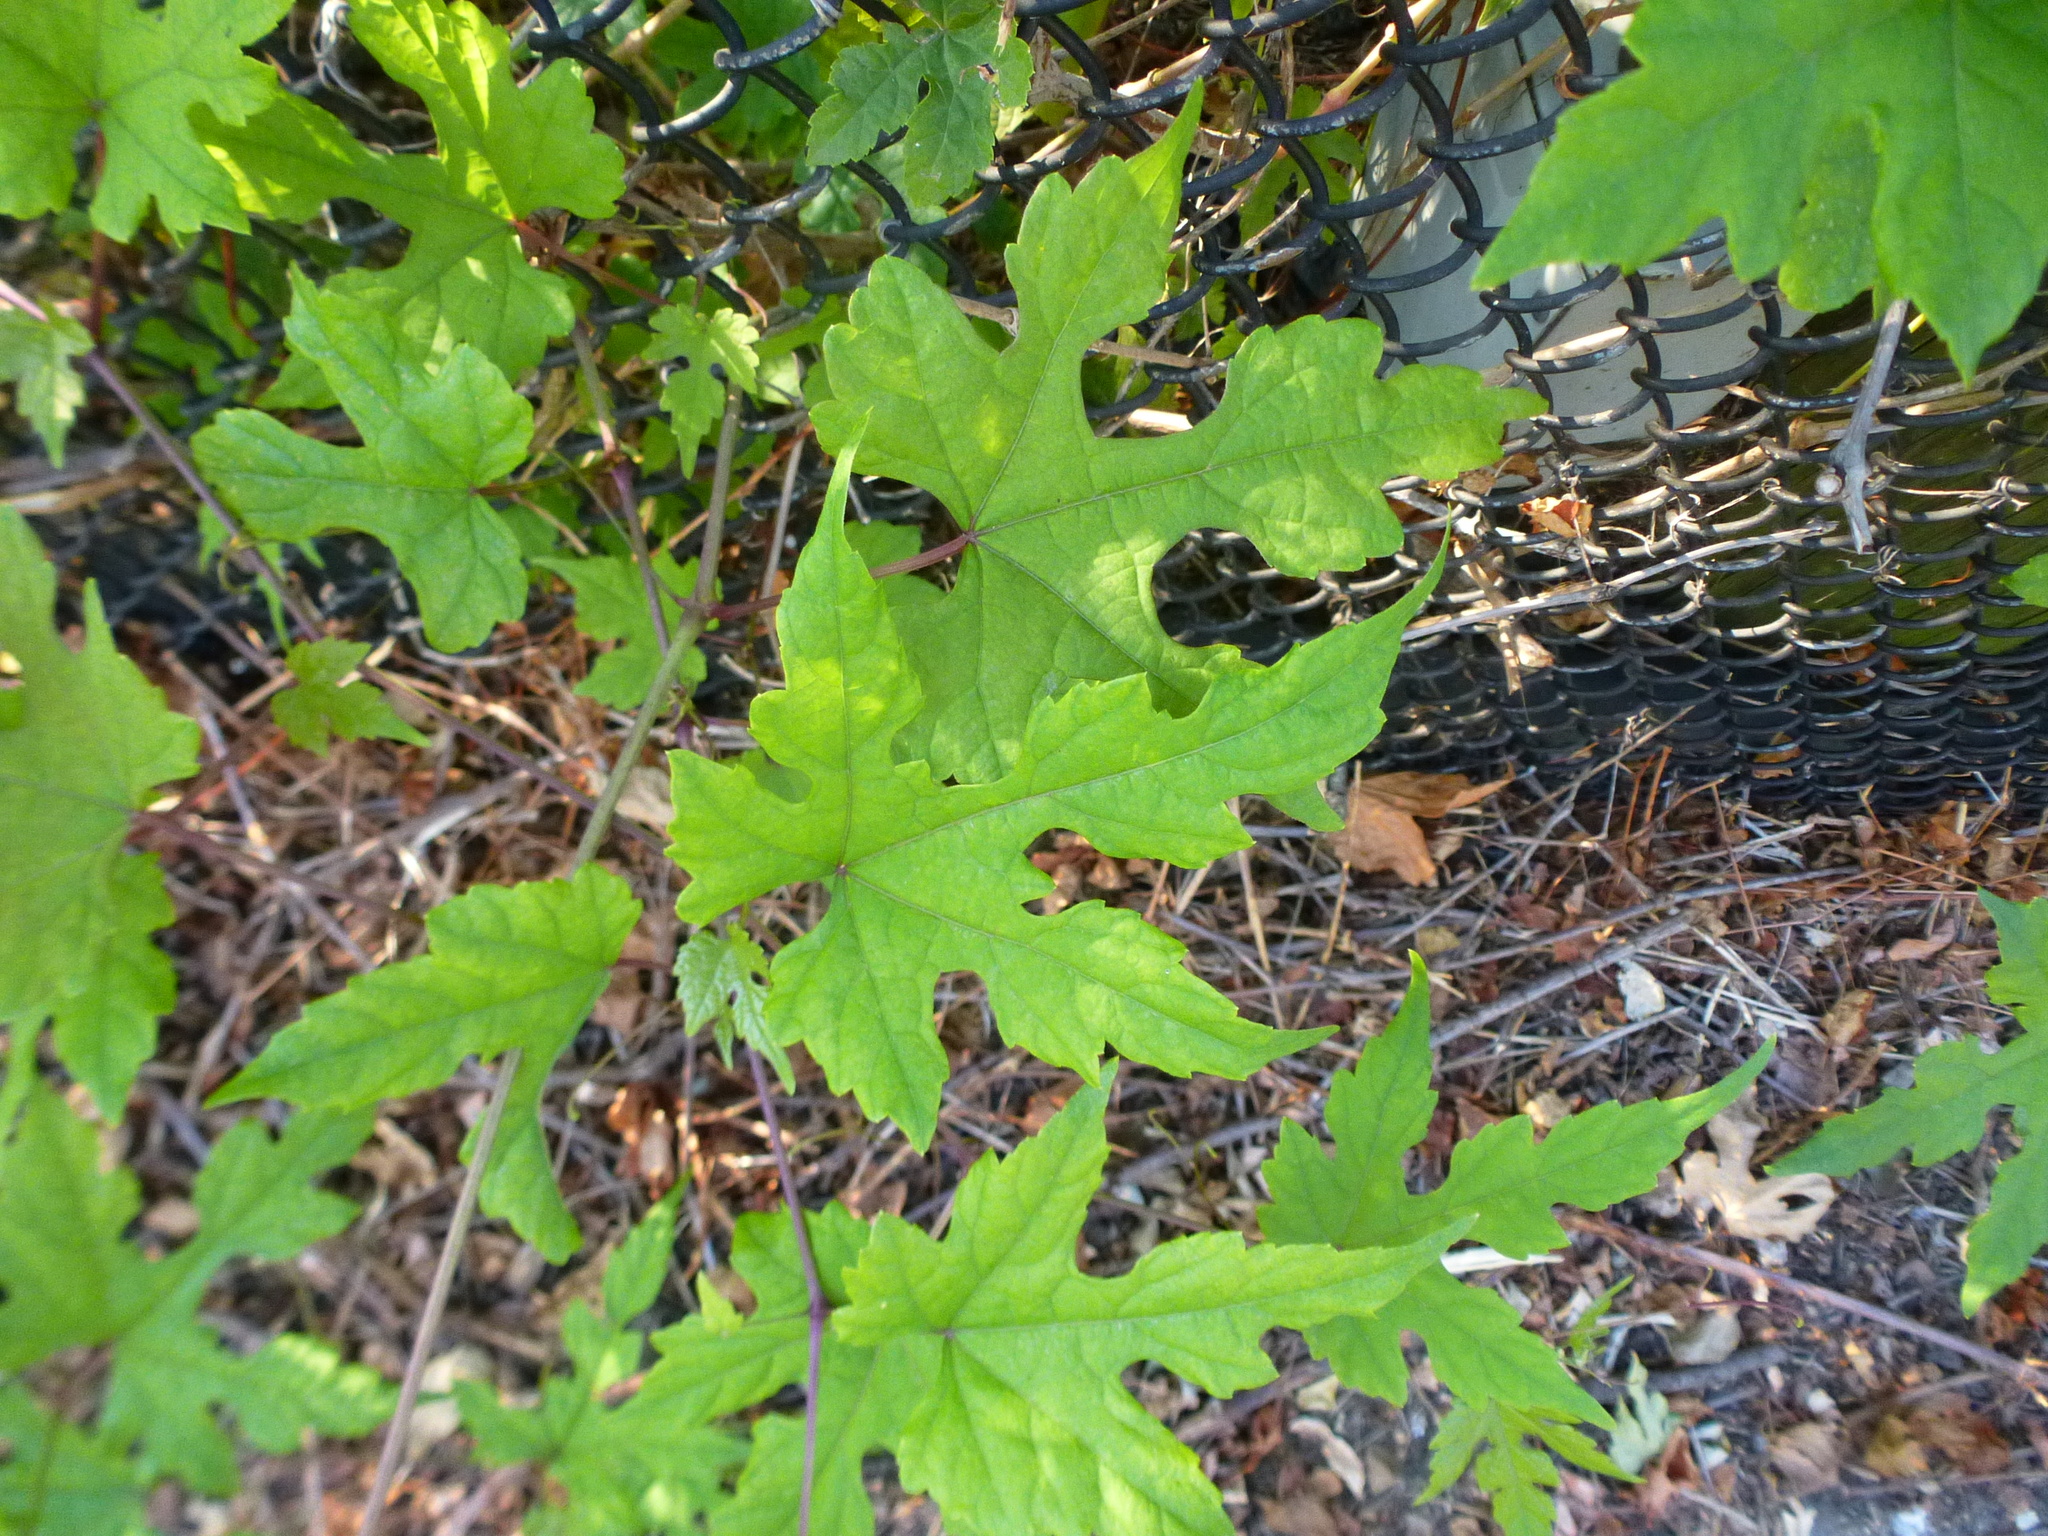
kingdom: Plantae
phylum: Tracheophyta
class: Magnoliopsida
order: Vitales
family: Vitaceae
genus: Ampelopsis
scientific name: Ampelopsis glandulosa
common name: Amur peppervine
